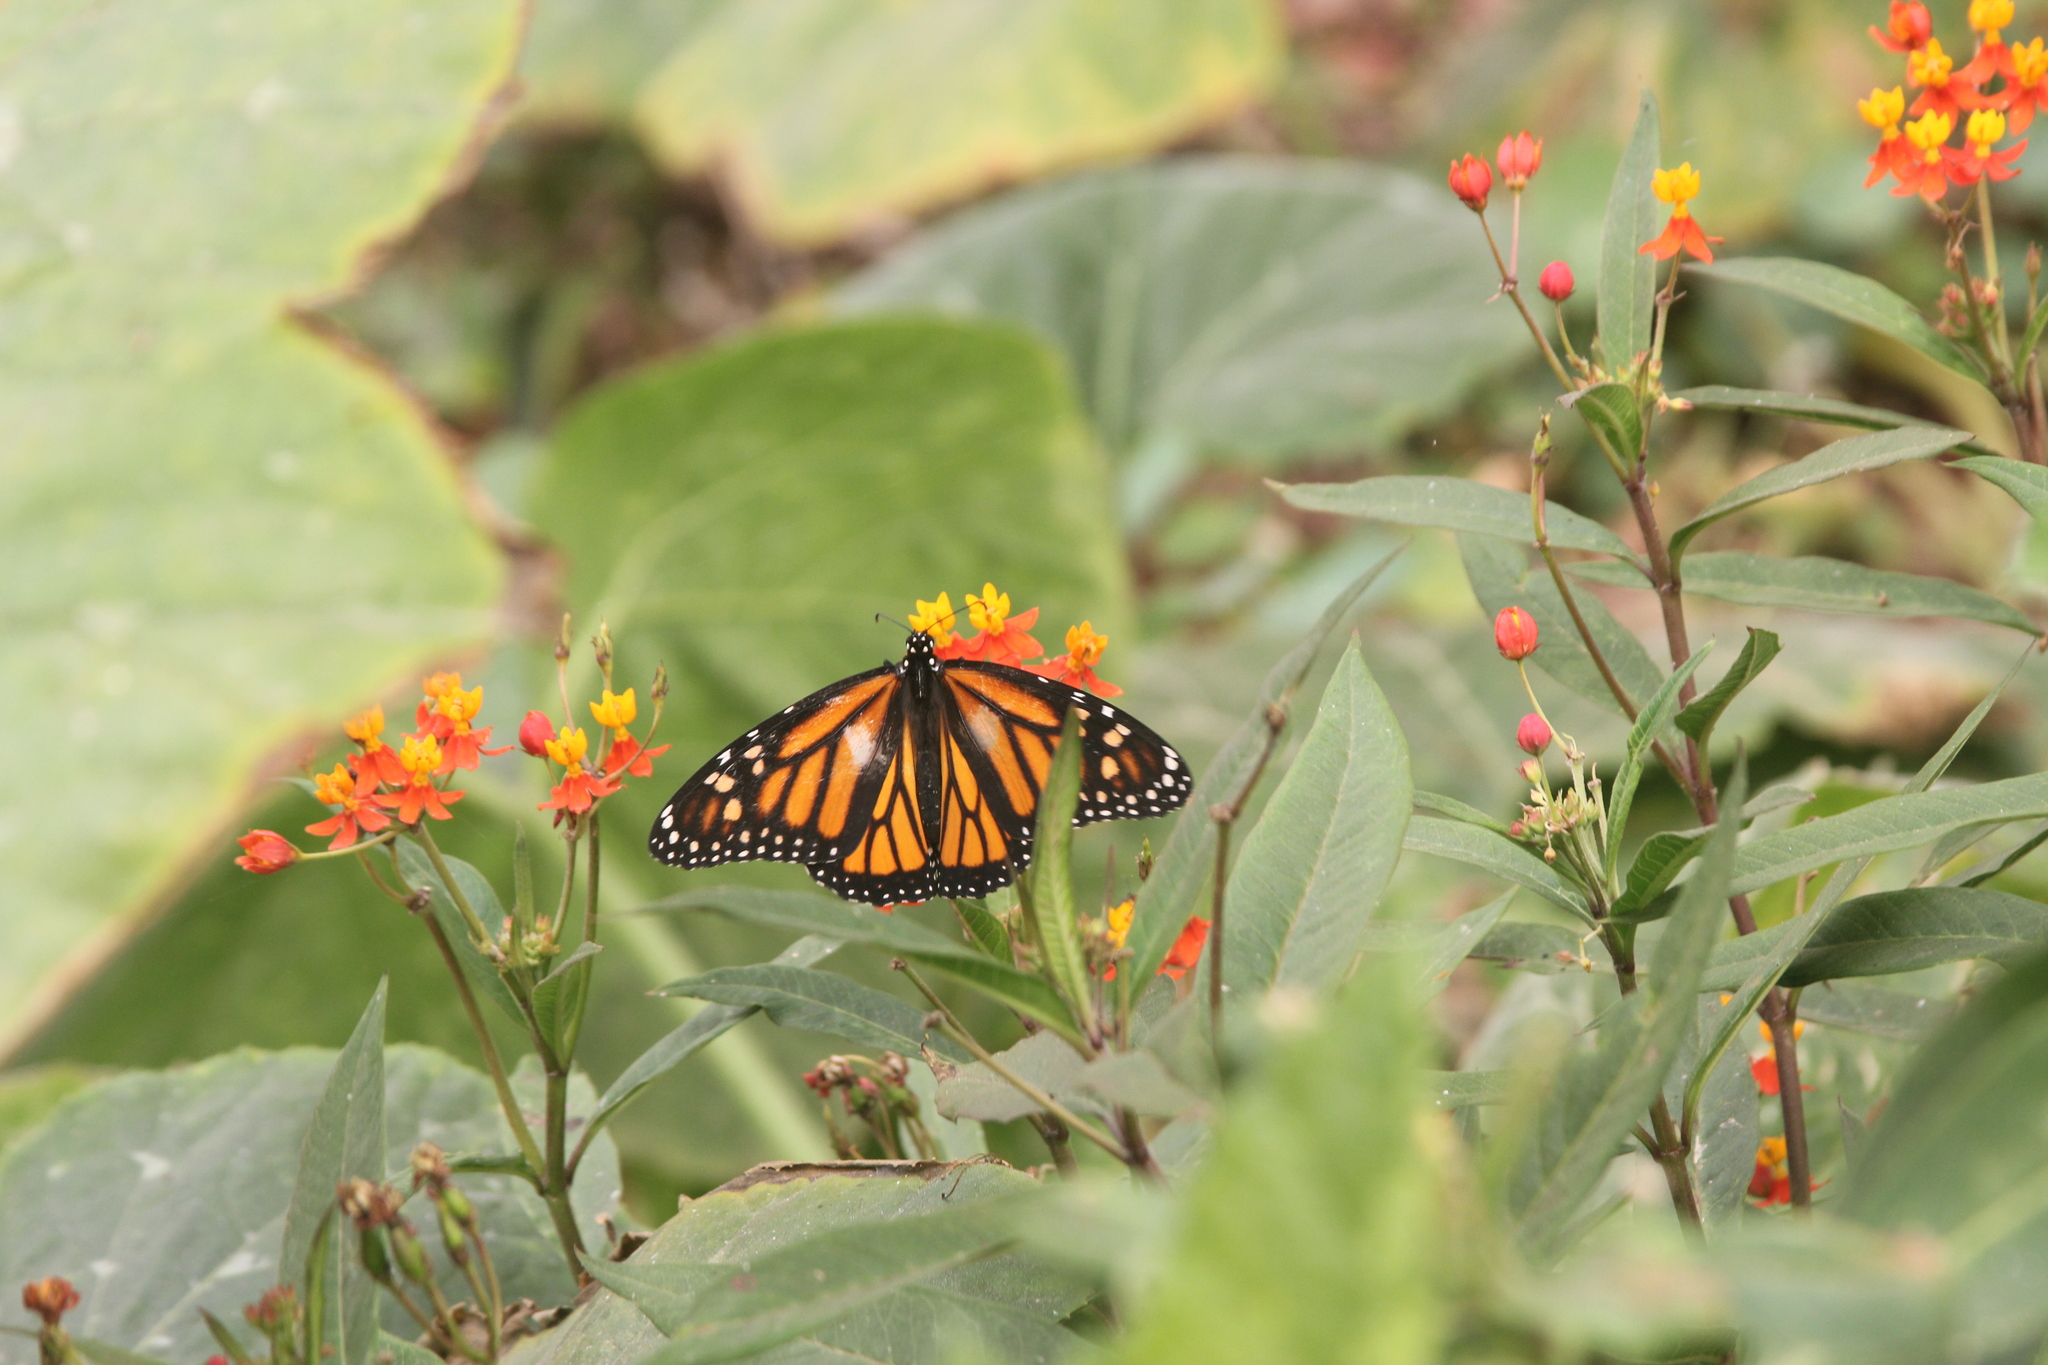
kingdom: Animalia
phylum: Arthropoda
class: Insecta
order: Lepidoptera
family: Nymphalidae
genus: Danaus
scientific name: Danaus plexippus
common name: Monarch
